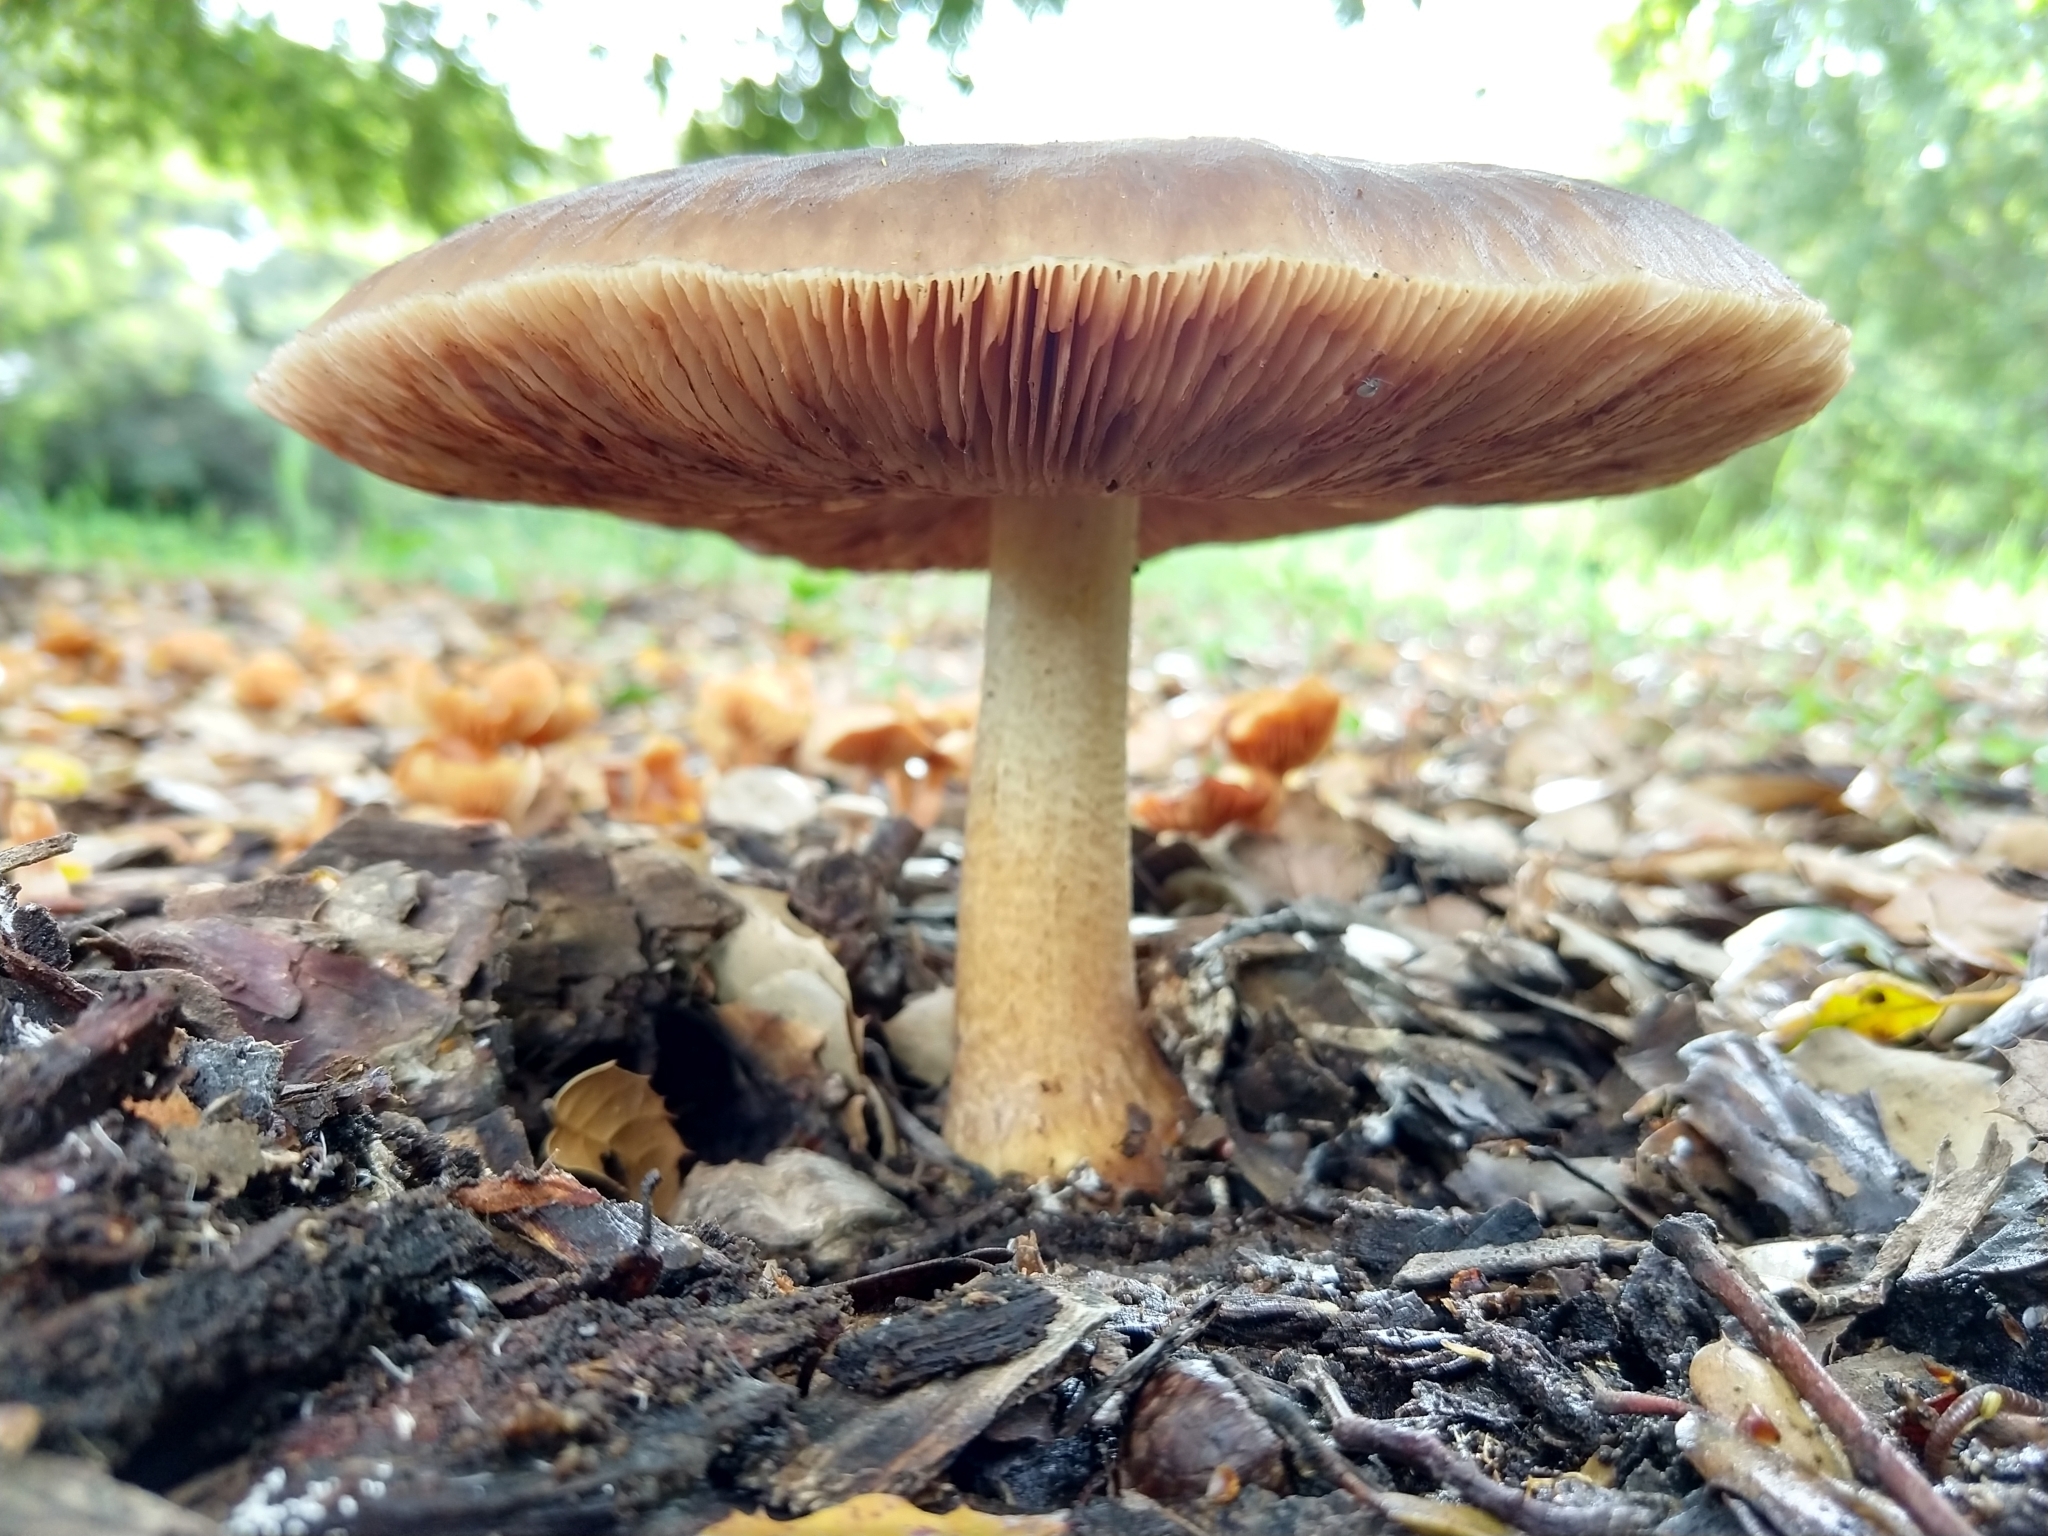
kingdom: Fungi
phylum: Basidiomycota
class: Agaricomycetes
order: Agaricales
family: Pluteaceae
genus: Pluteus
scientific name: Pluteus cervinus
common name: Deer shield
